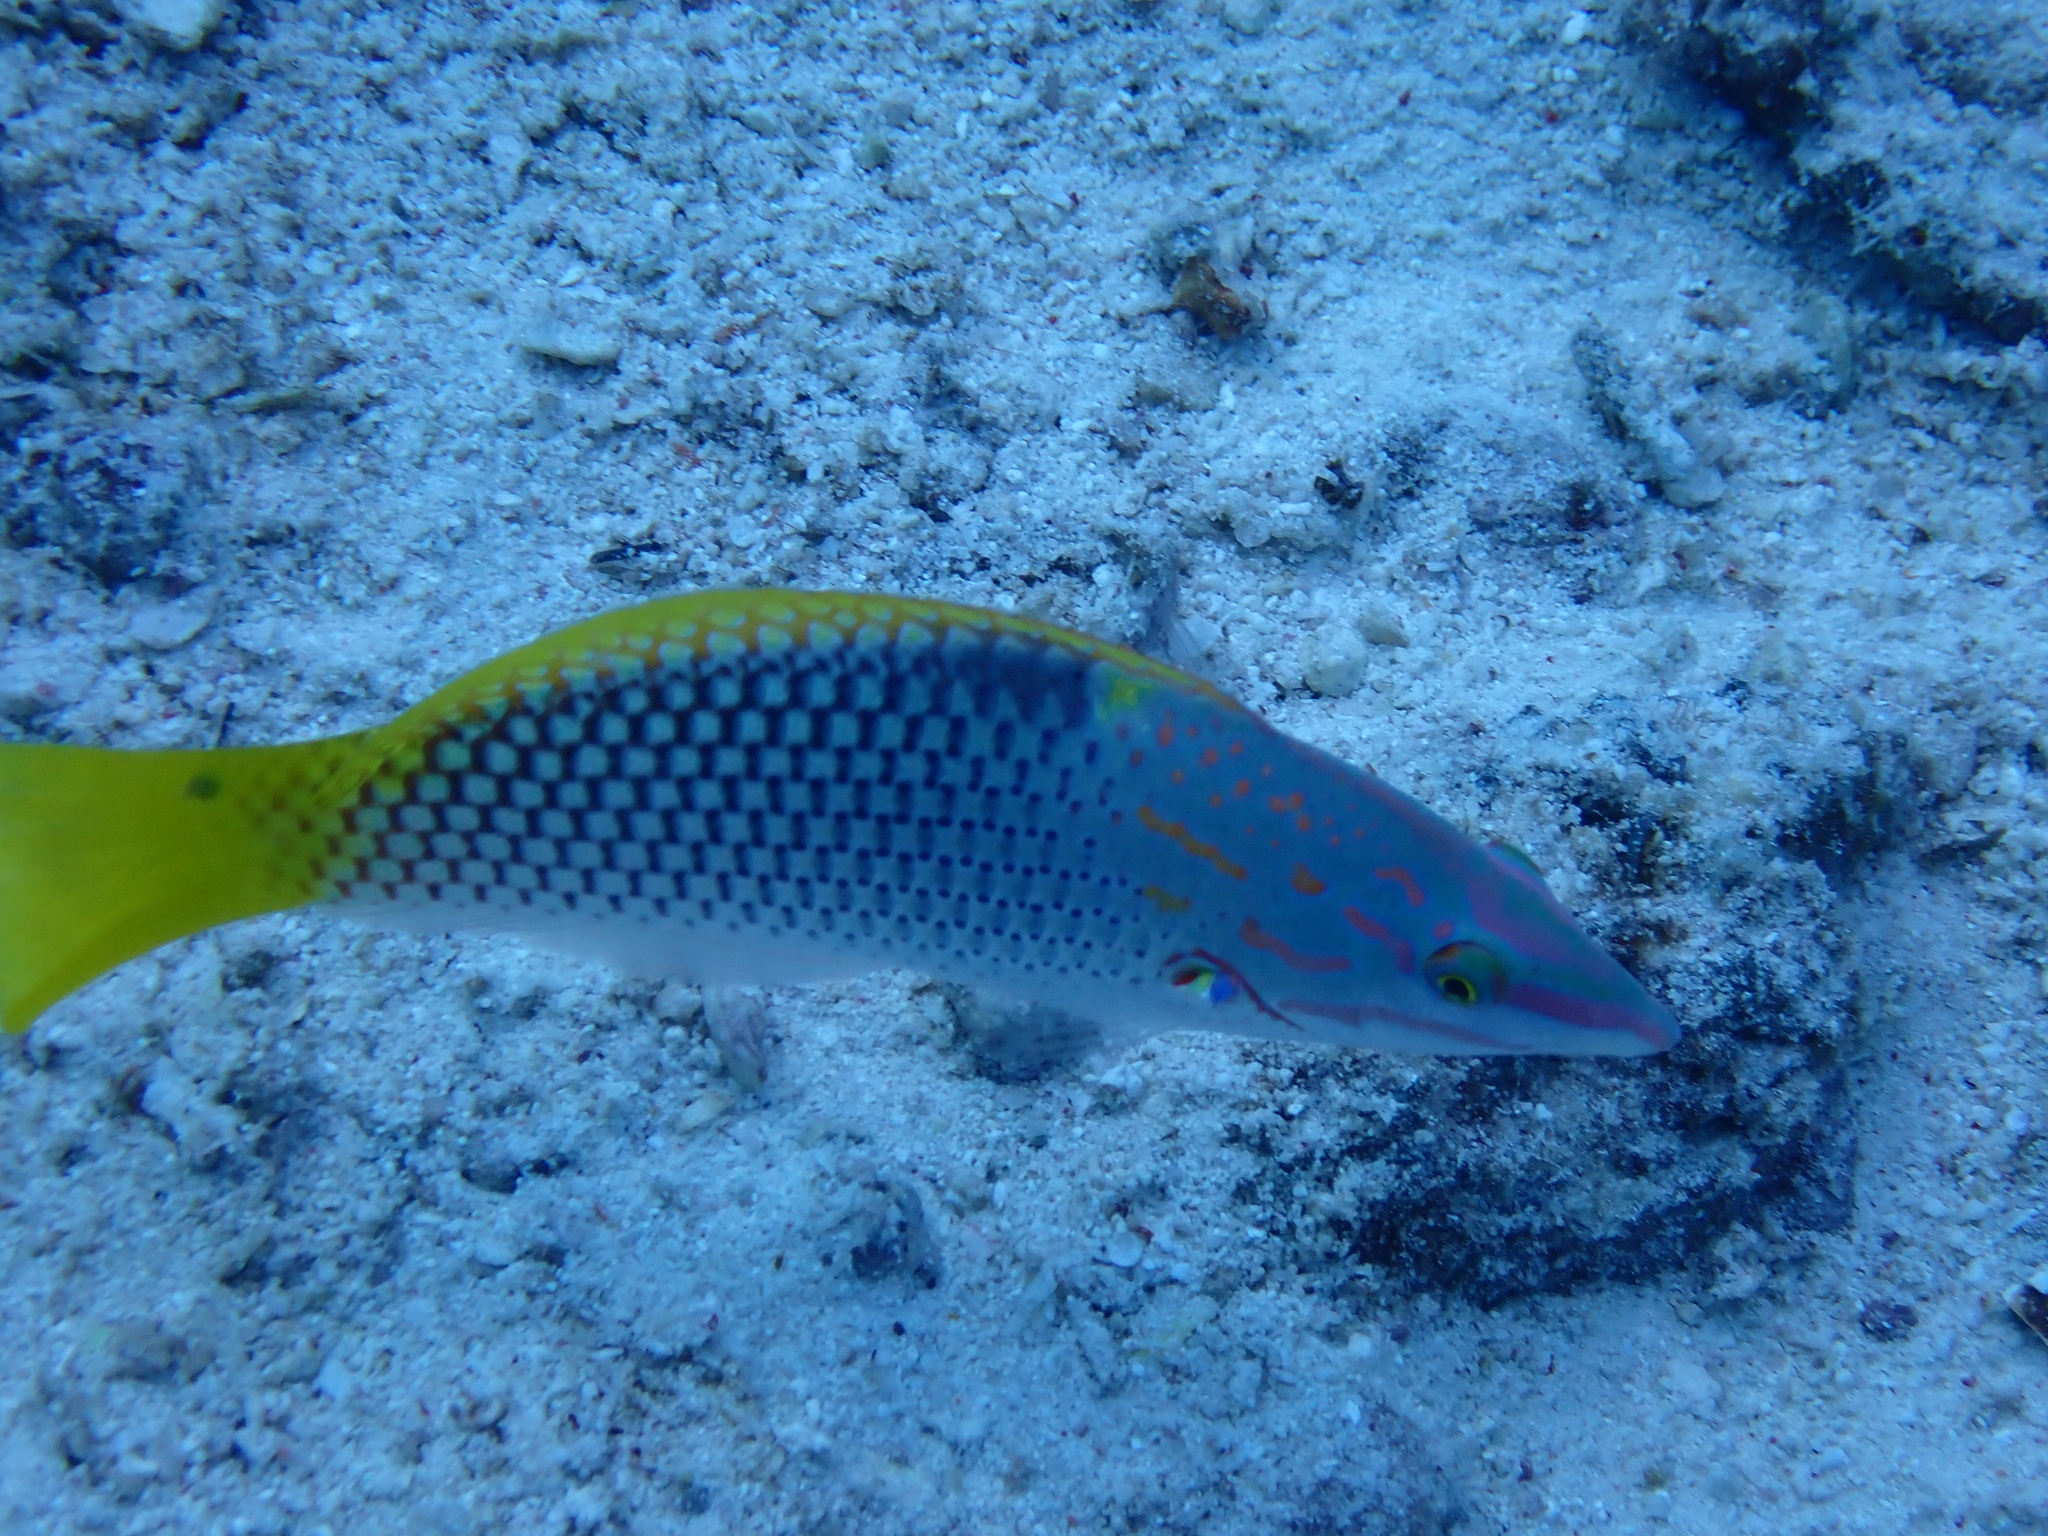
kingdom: Animalia
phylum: Chordata
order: Perciformes
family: Labridae
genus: Halichoeres
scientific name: Halichoeres hortulanus
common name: Checkerboard wrasse
